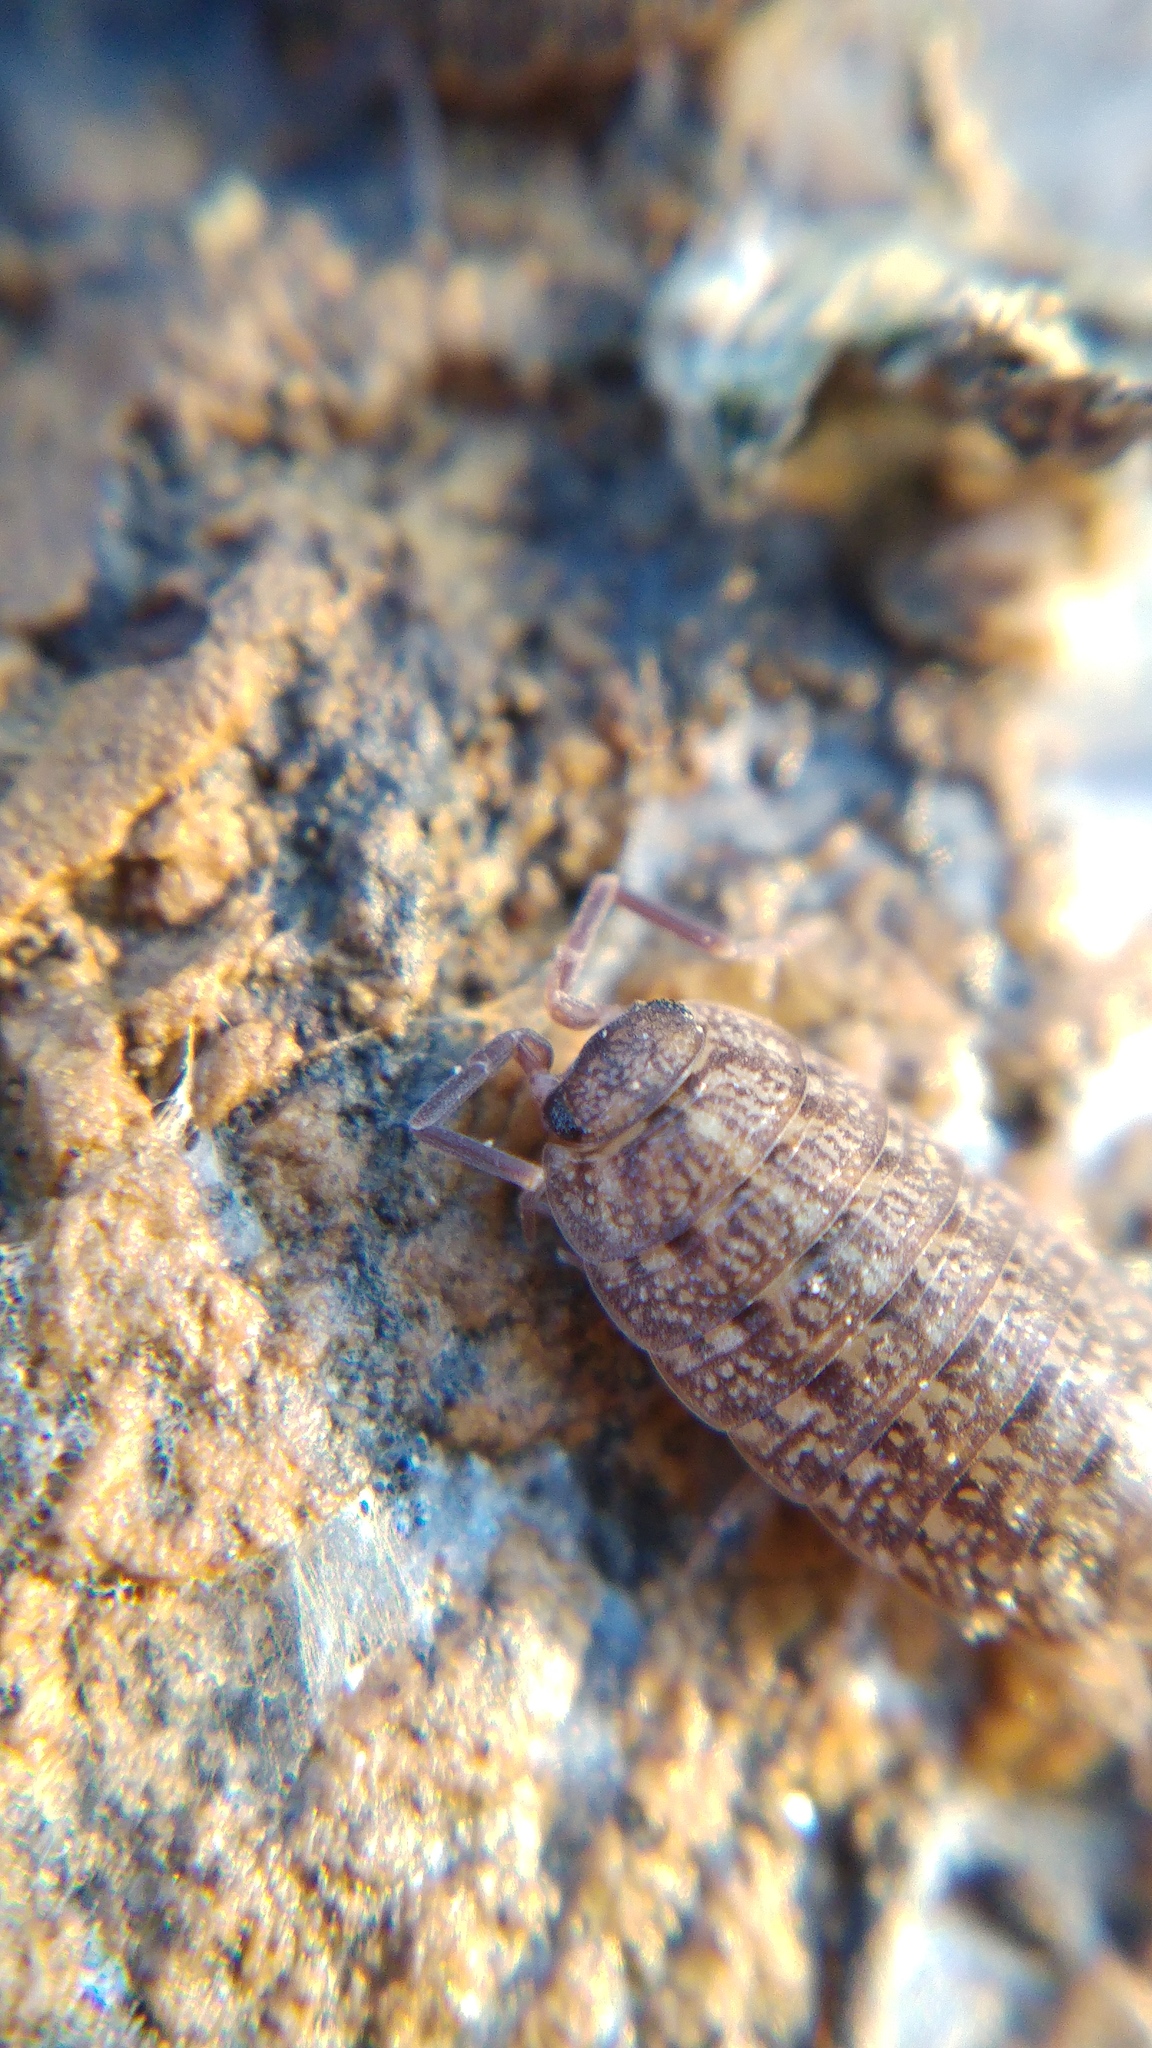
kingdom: Animalia
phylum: Arthropoda
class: Malacostraca
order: Isopoda
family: Agnaridae
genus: Orthometopon
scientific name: Orthometopon dalmatinum
